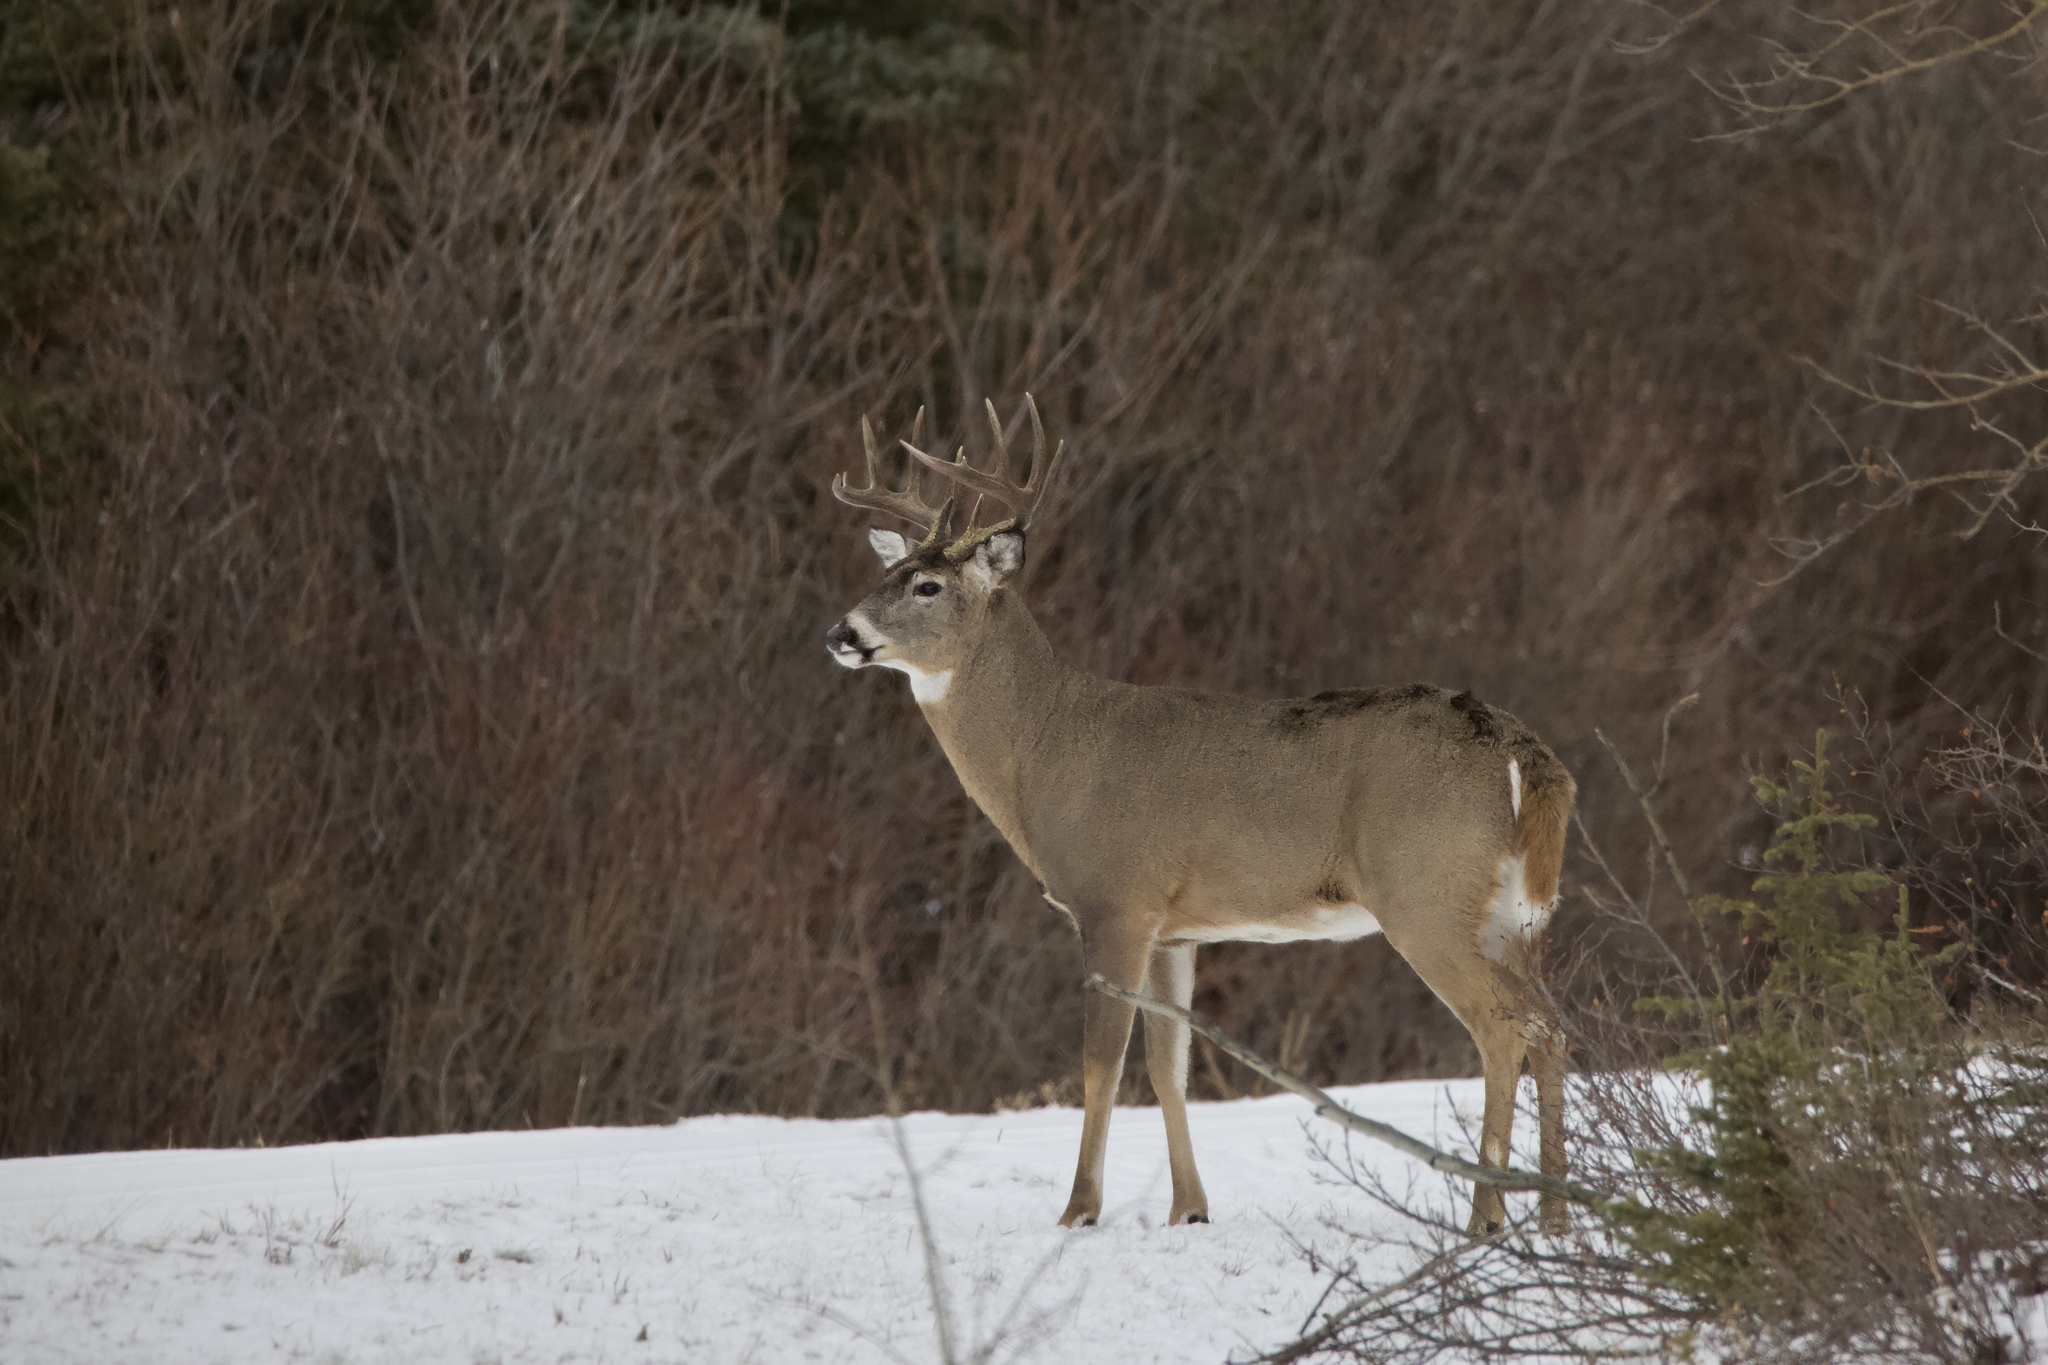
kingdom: Animalia
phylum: Chordata
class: Mammalia
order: Artiodactyla
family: Cervidae
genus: Odocoileus
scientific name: Odocoileus virginianus
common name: White-tailed deer
